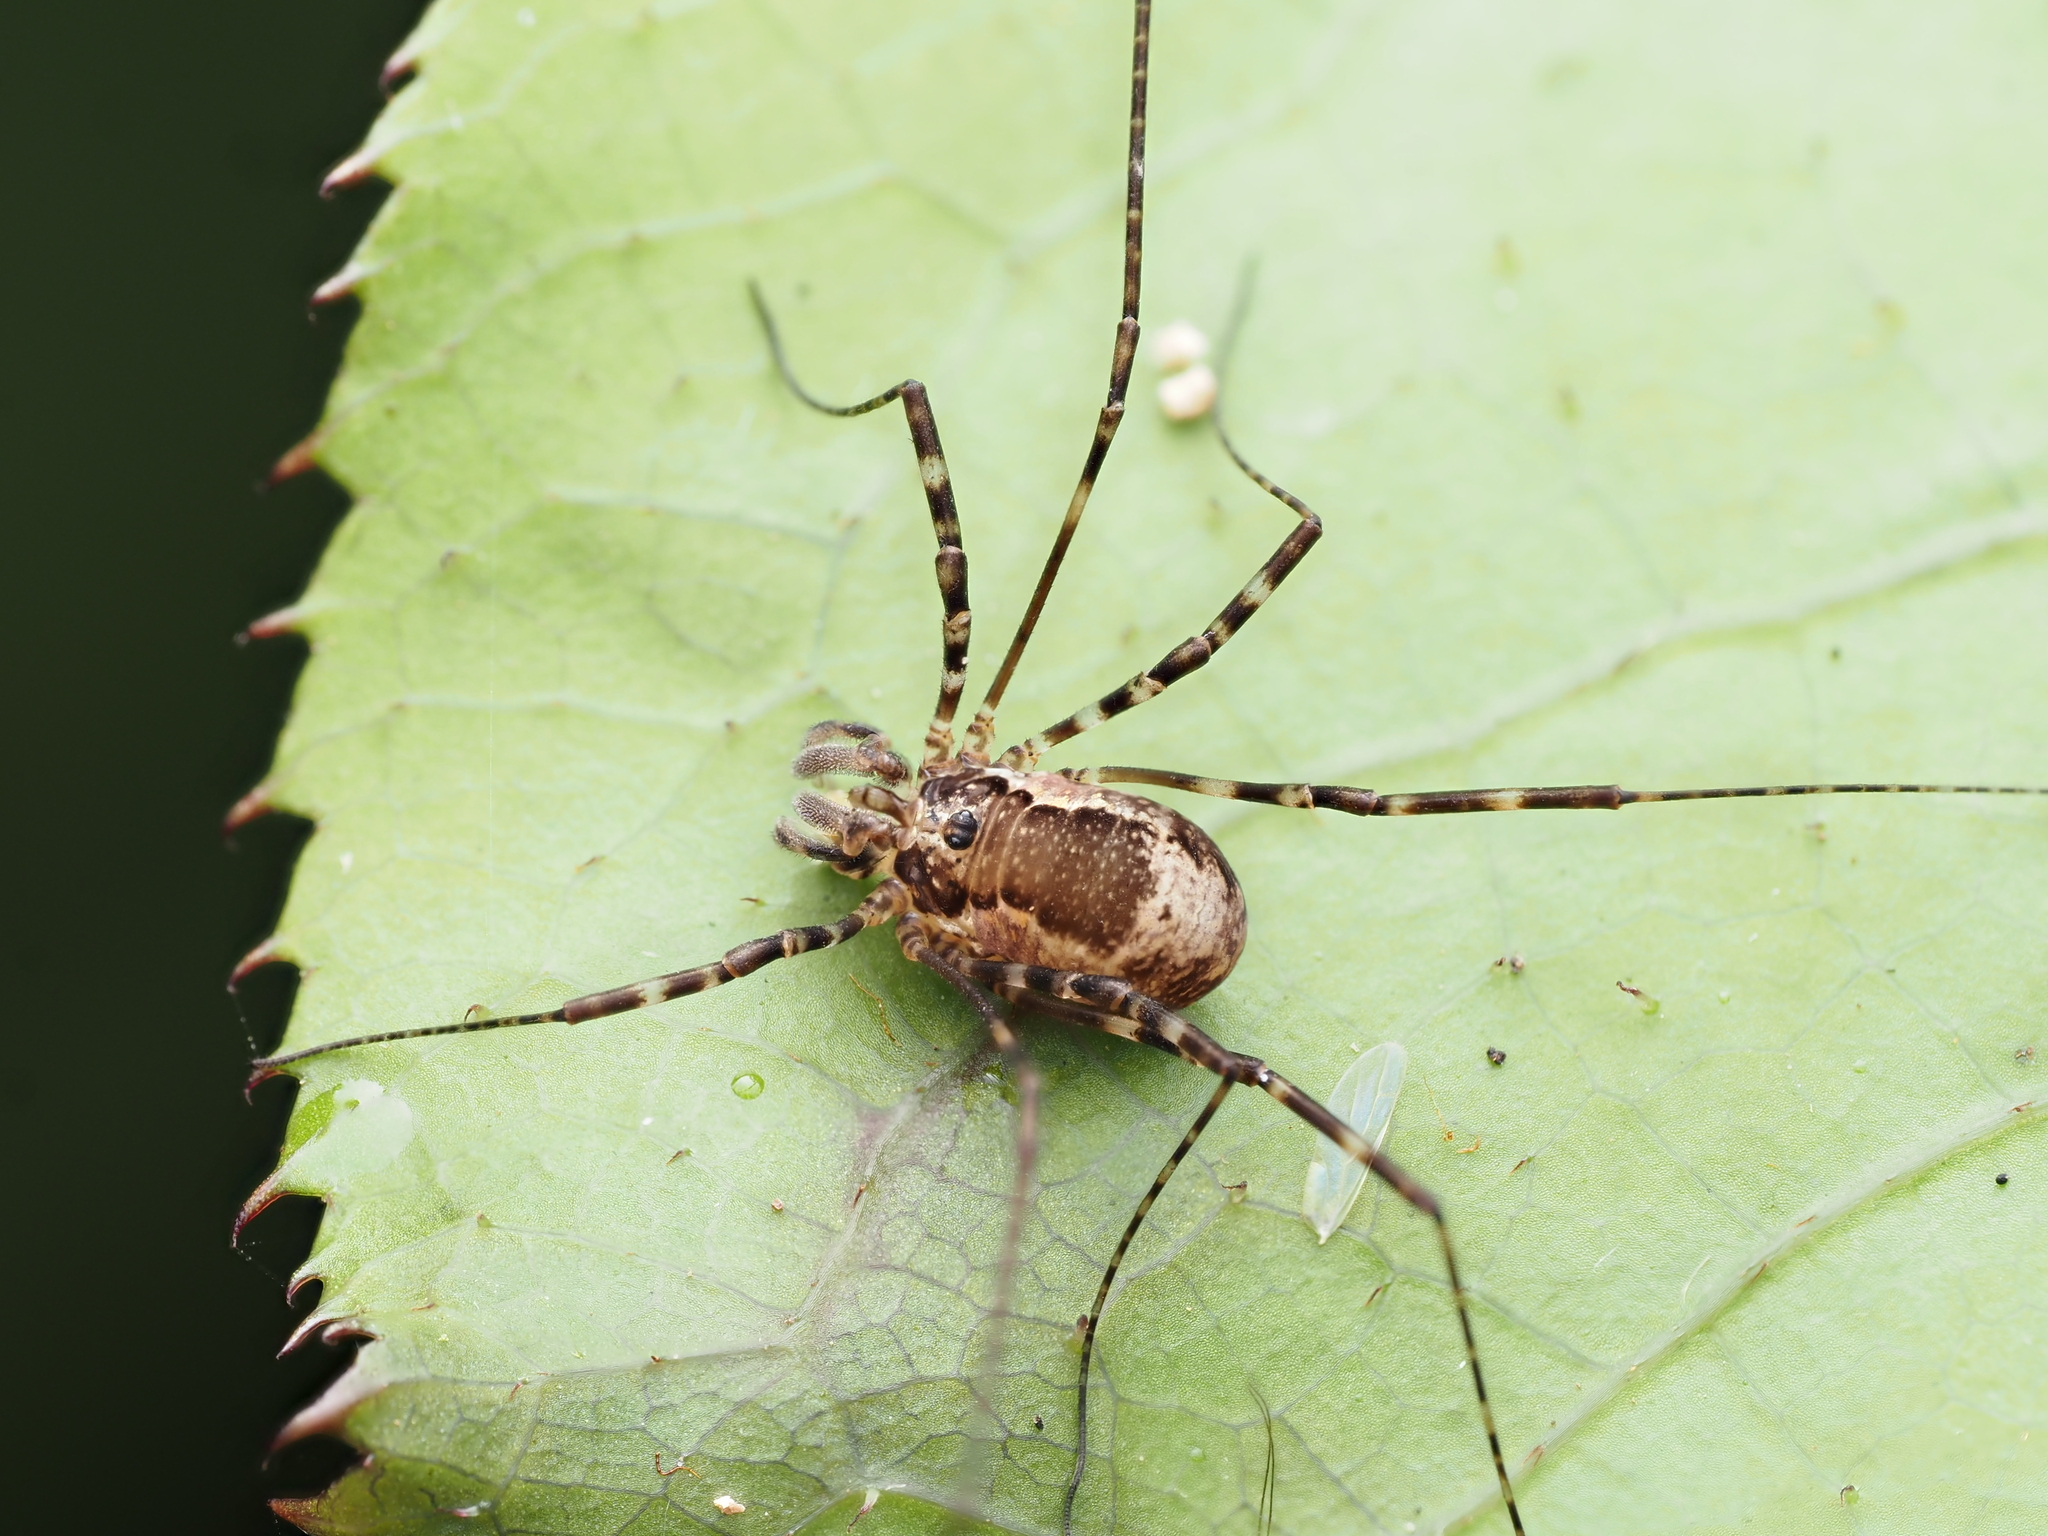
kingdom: Animalia
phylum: Arthropoda
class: Arachnida
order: Opiliones
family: Neopilionidae
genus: Megalopsalis
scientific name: Megalopsalis triascuta
